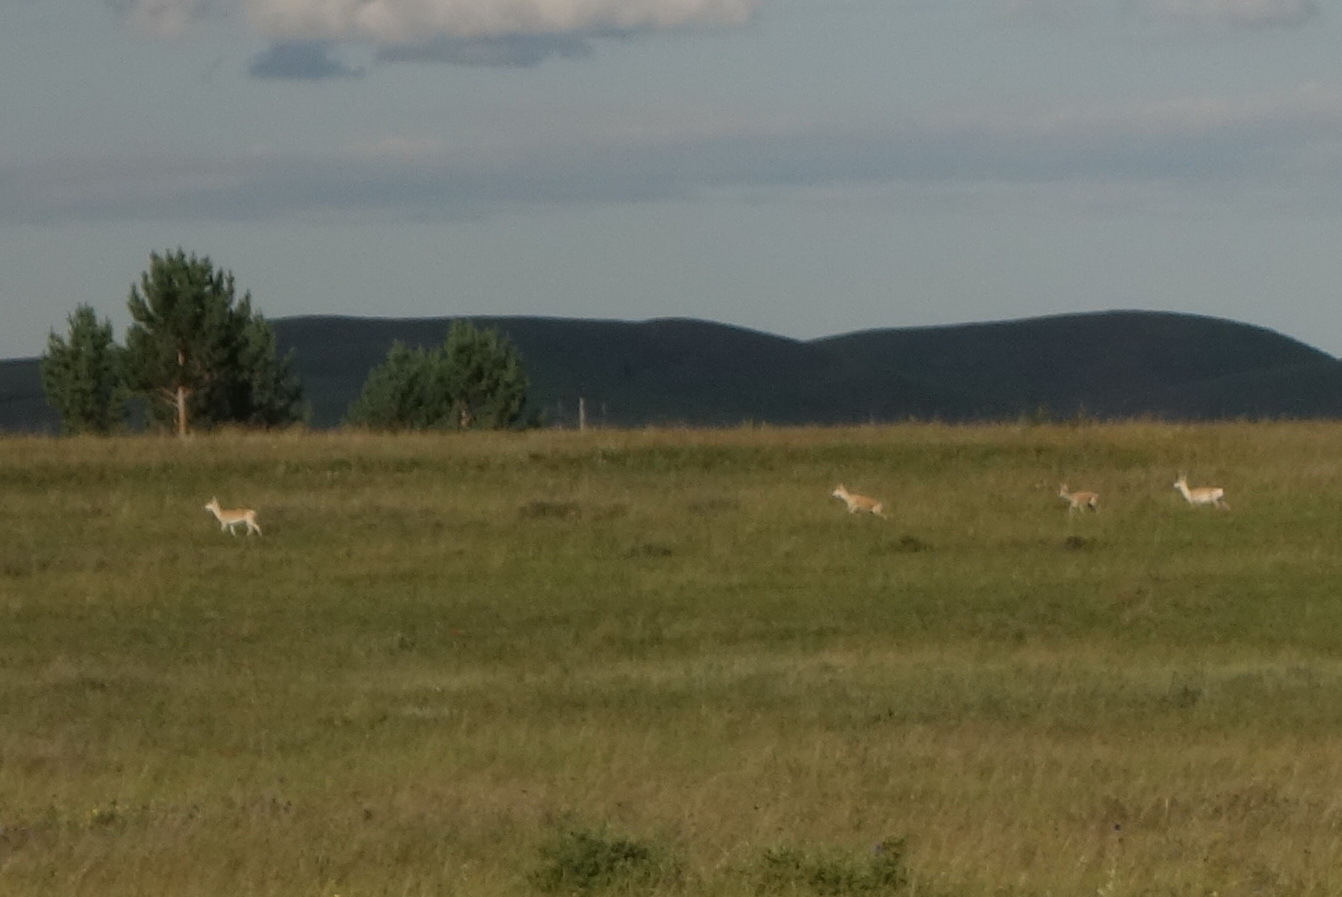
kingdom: Animalia
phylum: Chordata
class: Mammalia
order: Artiodactyla
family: Bovidae
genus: Procapra
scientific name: Procapra gutturosa
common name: Mongolian gazelle
